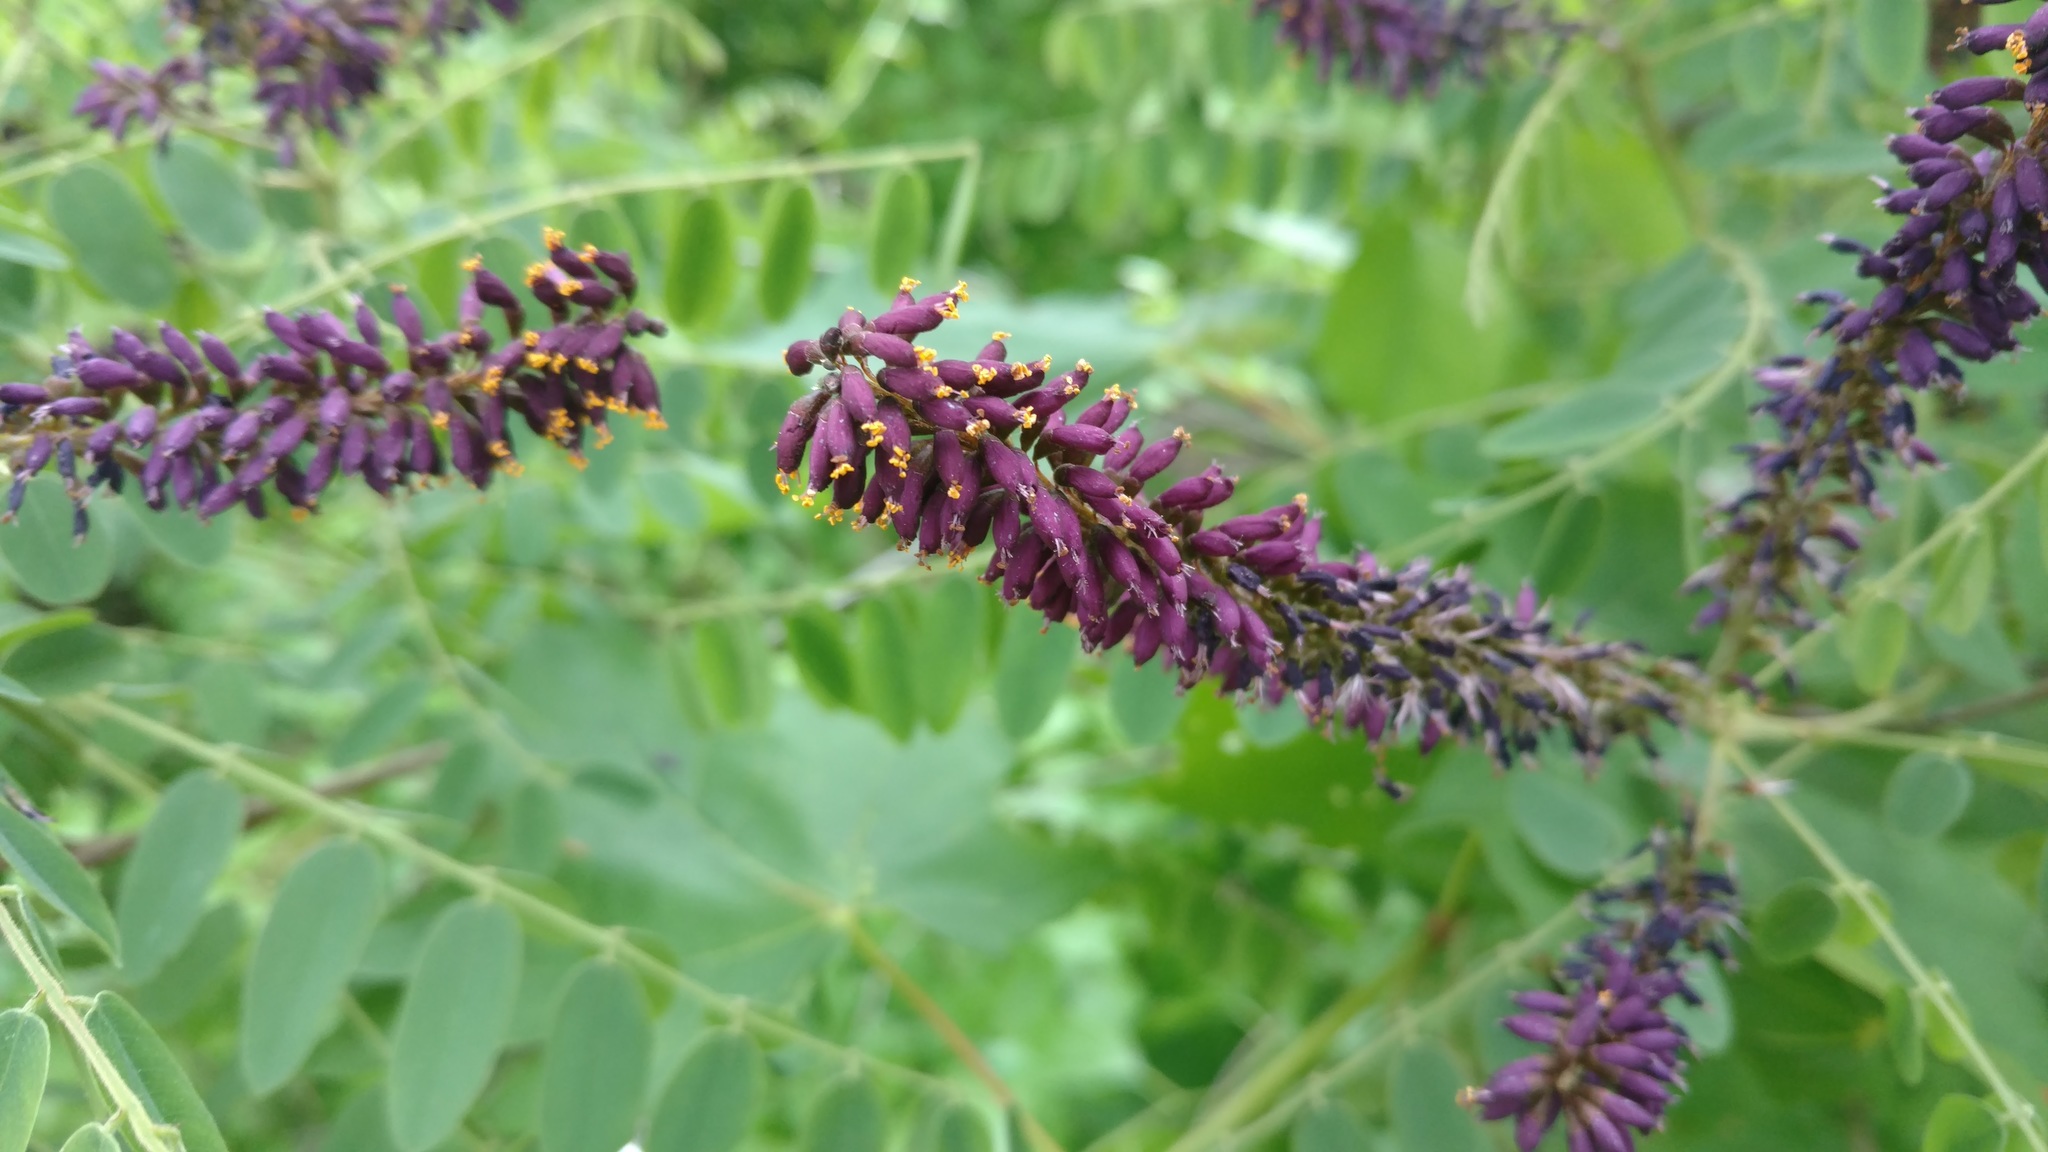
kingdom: Plantae
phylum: Tracheophyta
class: Magnoliopsida
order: Fabales
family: Fabaceae
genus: Amorpha
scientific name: Amorpha fruticosa
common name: False indigo
